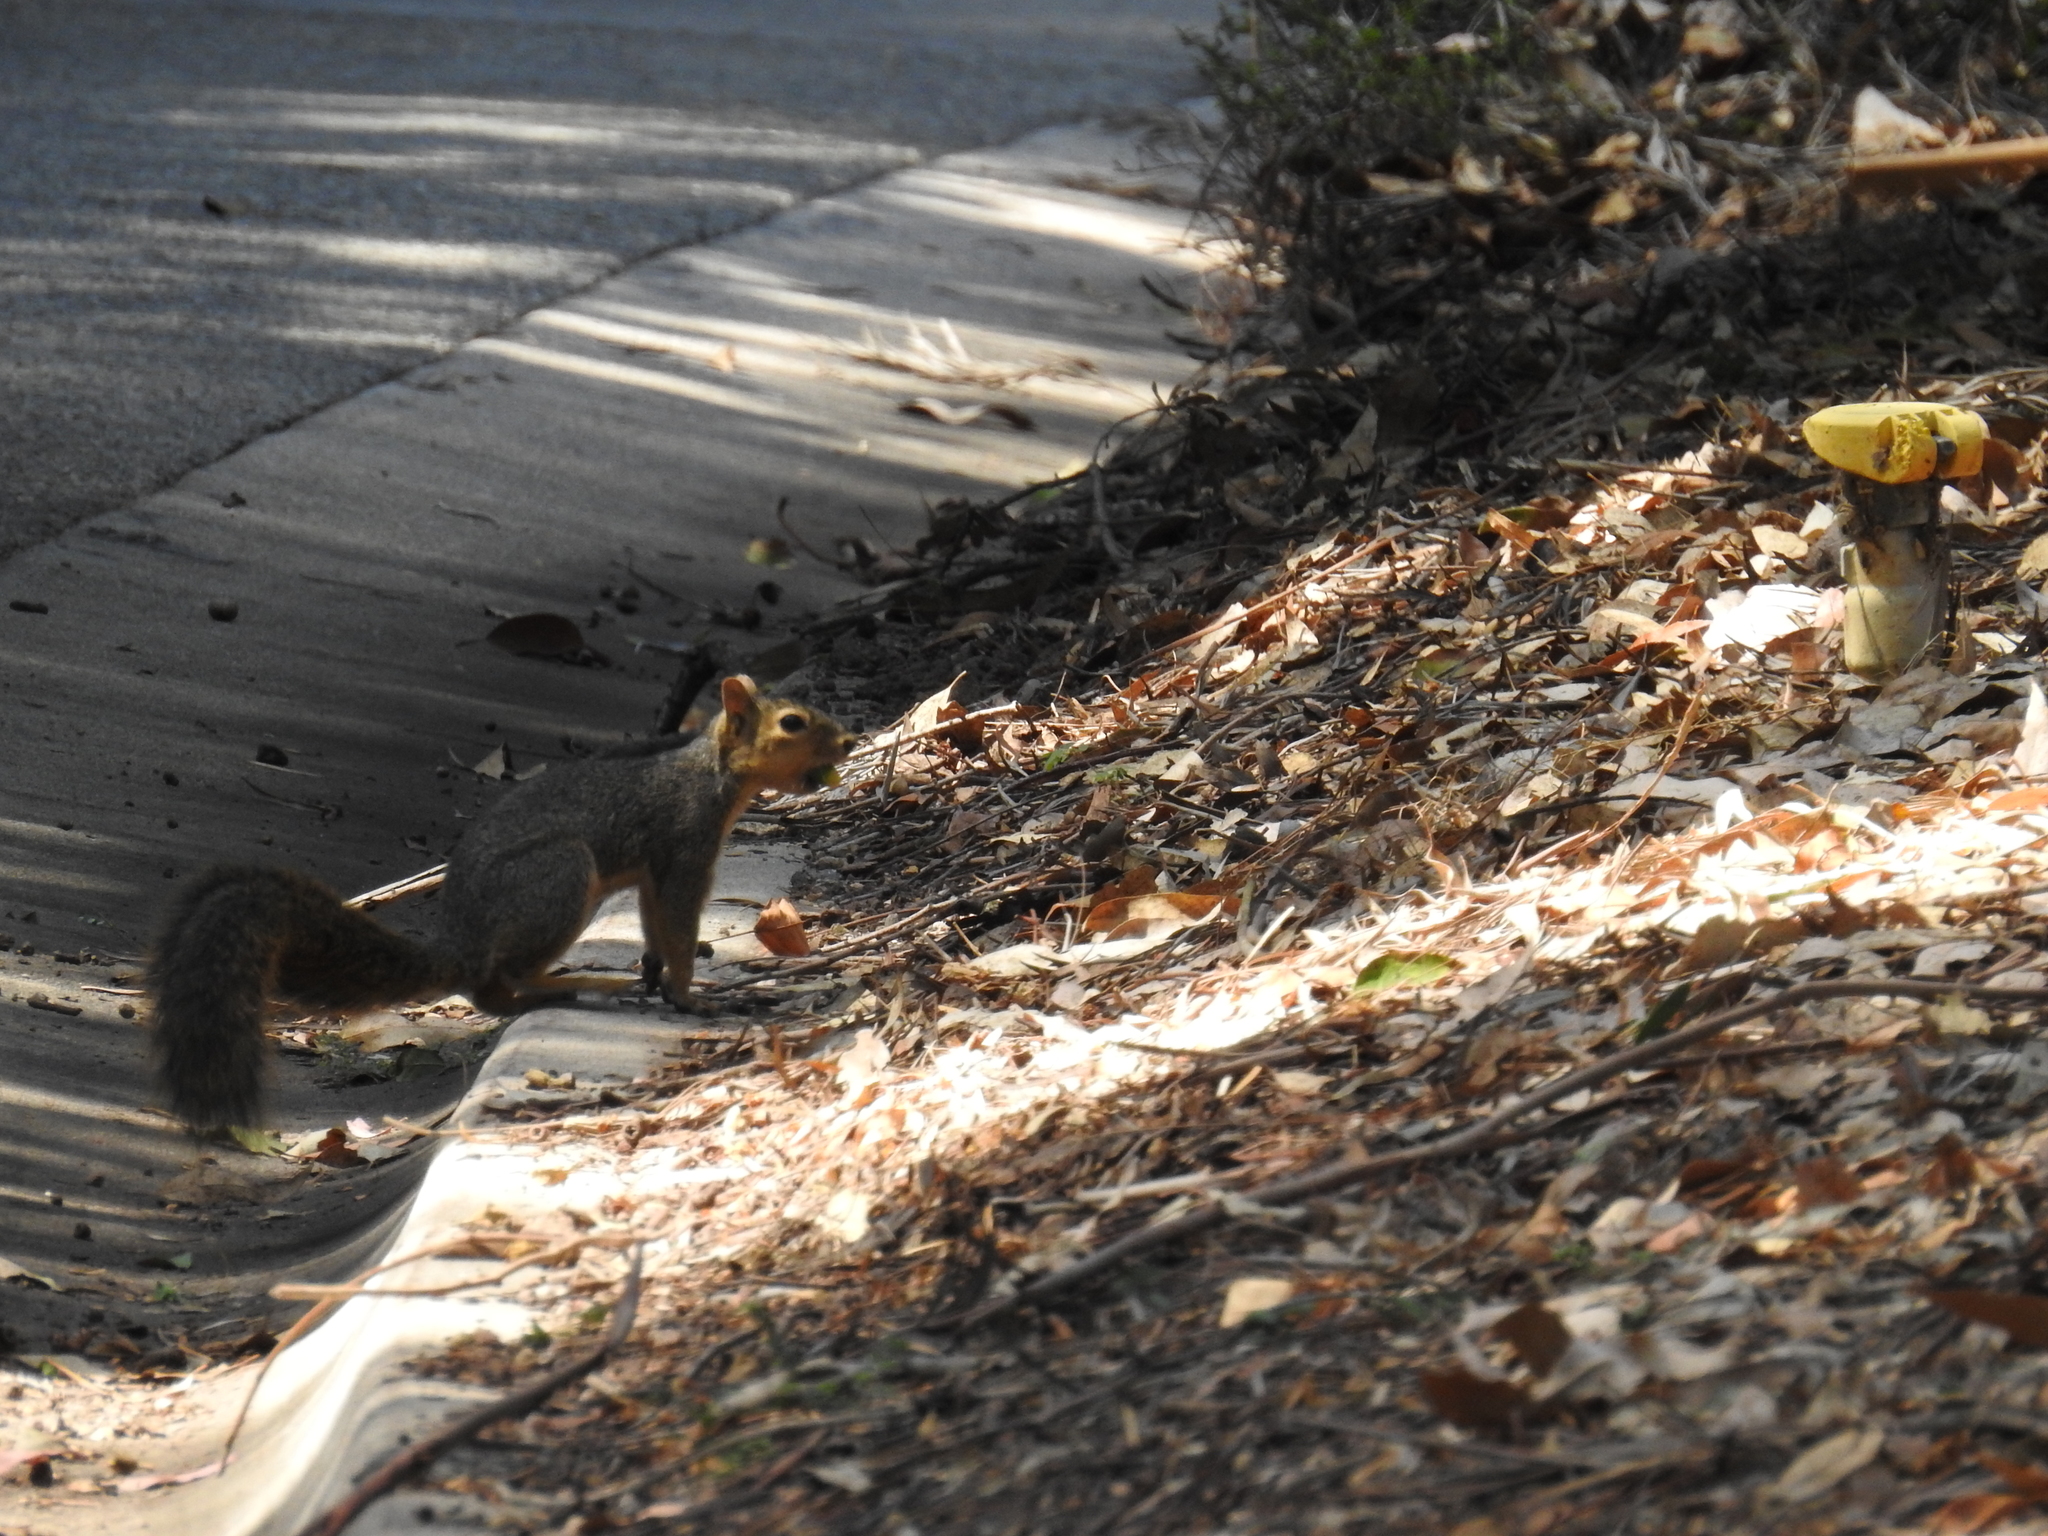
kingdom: Animalia
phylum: Chordata
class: Mammalia
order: Rodentia
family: Sciuridae
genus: Sciurus
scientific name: Sciurus niger
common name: Fox squirrel
